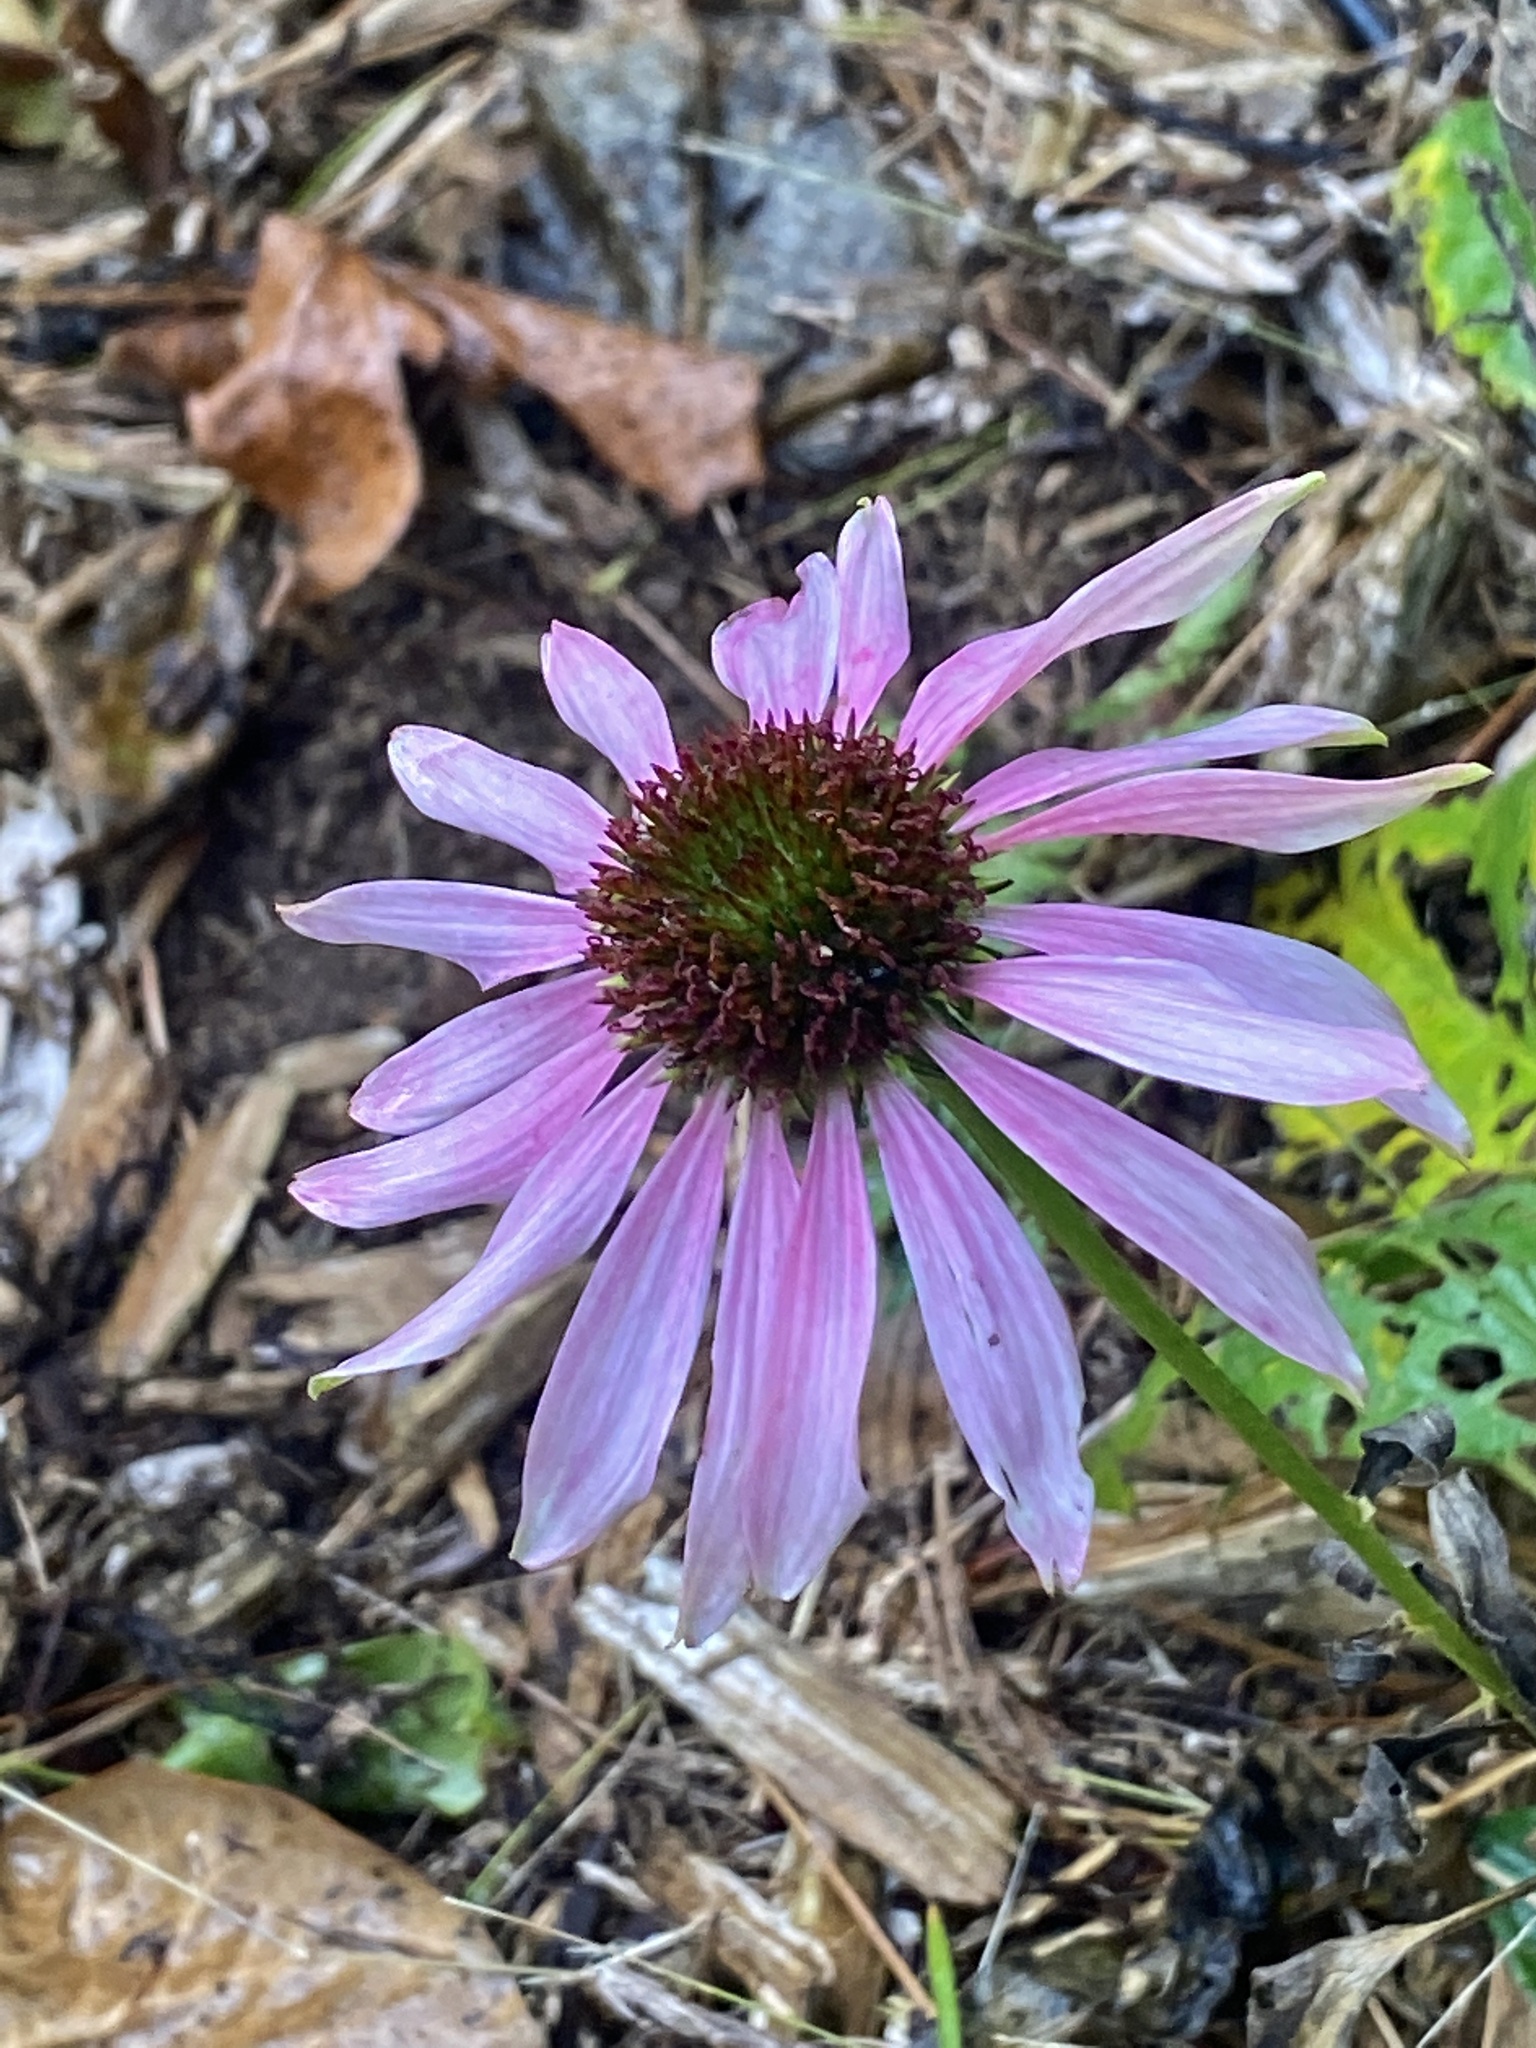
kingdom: Plantae
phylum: Tracheophyta
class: Magnoliopsida
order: Asterales
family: Asteraceae
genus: Echinacea
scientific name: Echinacea purpurea
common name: Broad-leaved purple coneflower
